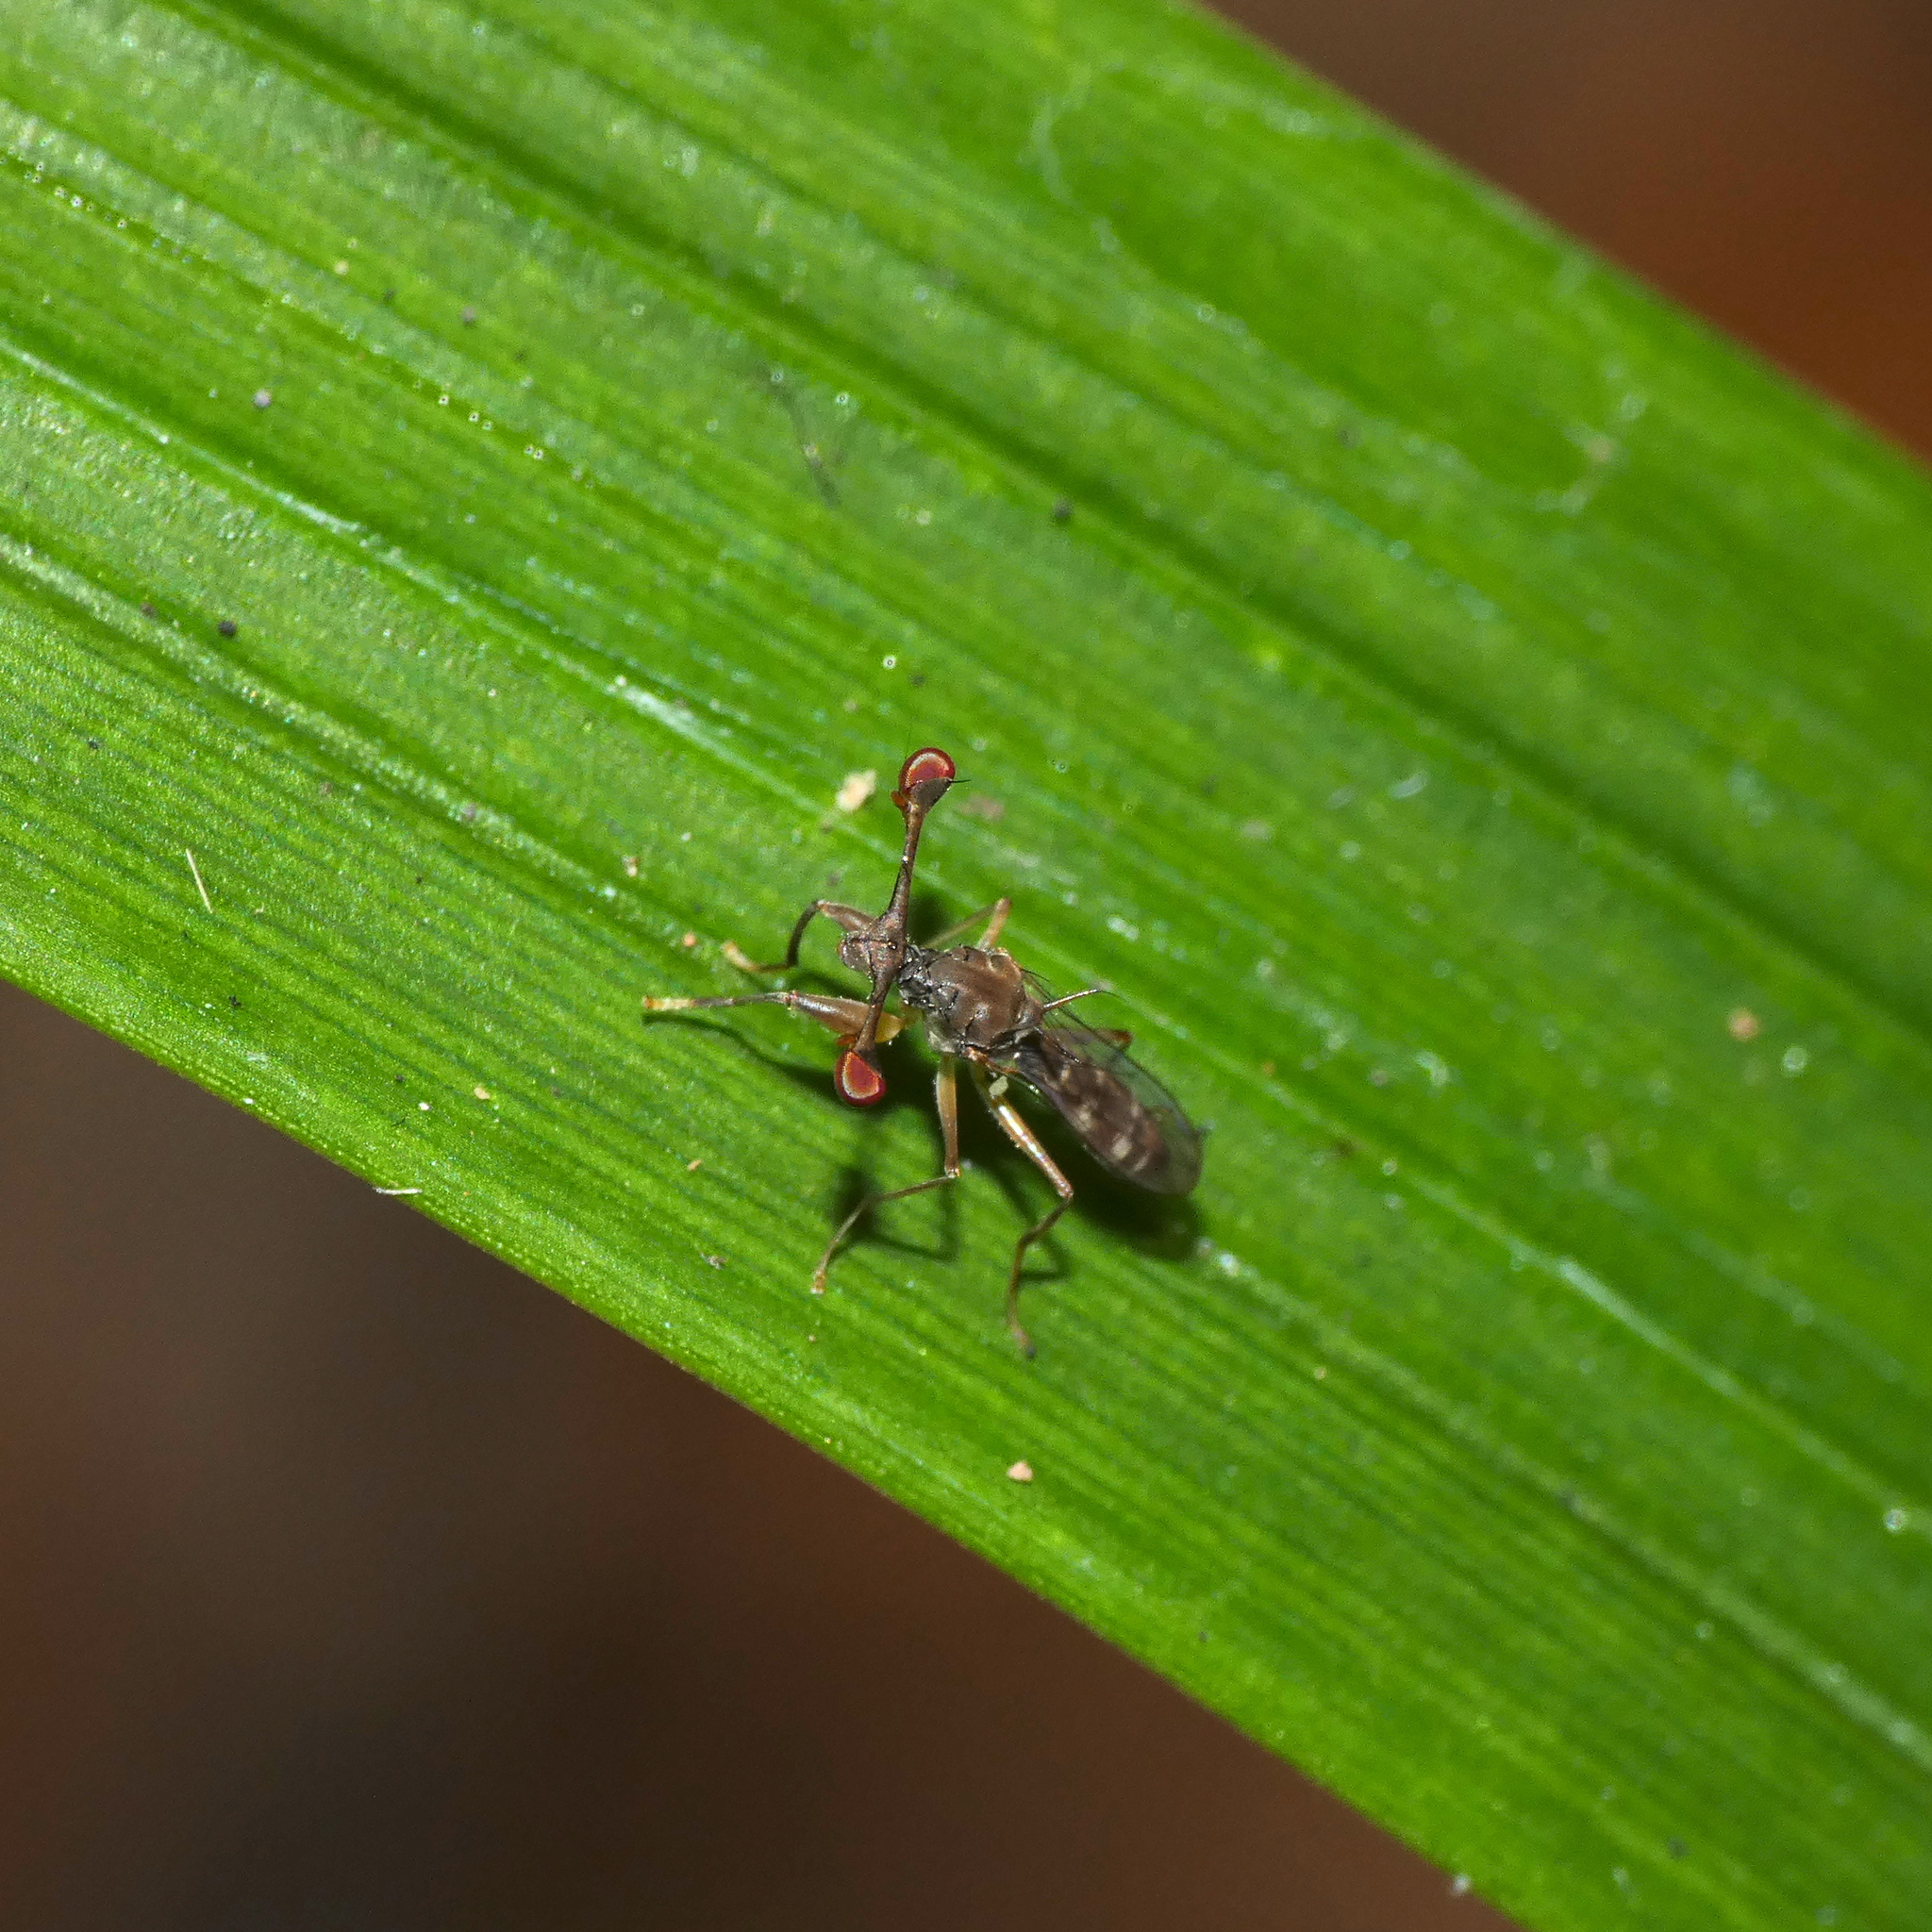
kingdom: Animalia
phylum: Arthropoda
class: Insecta
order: Diptera
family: Diopsidae
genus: Diasemopsis
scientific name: Diasemopsis signata
